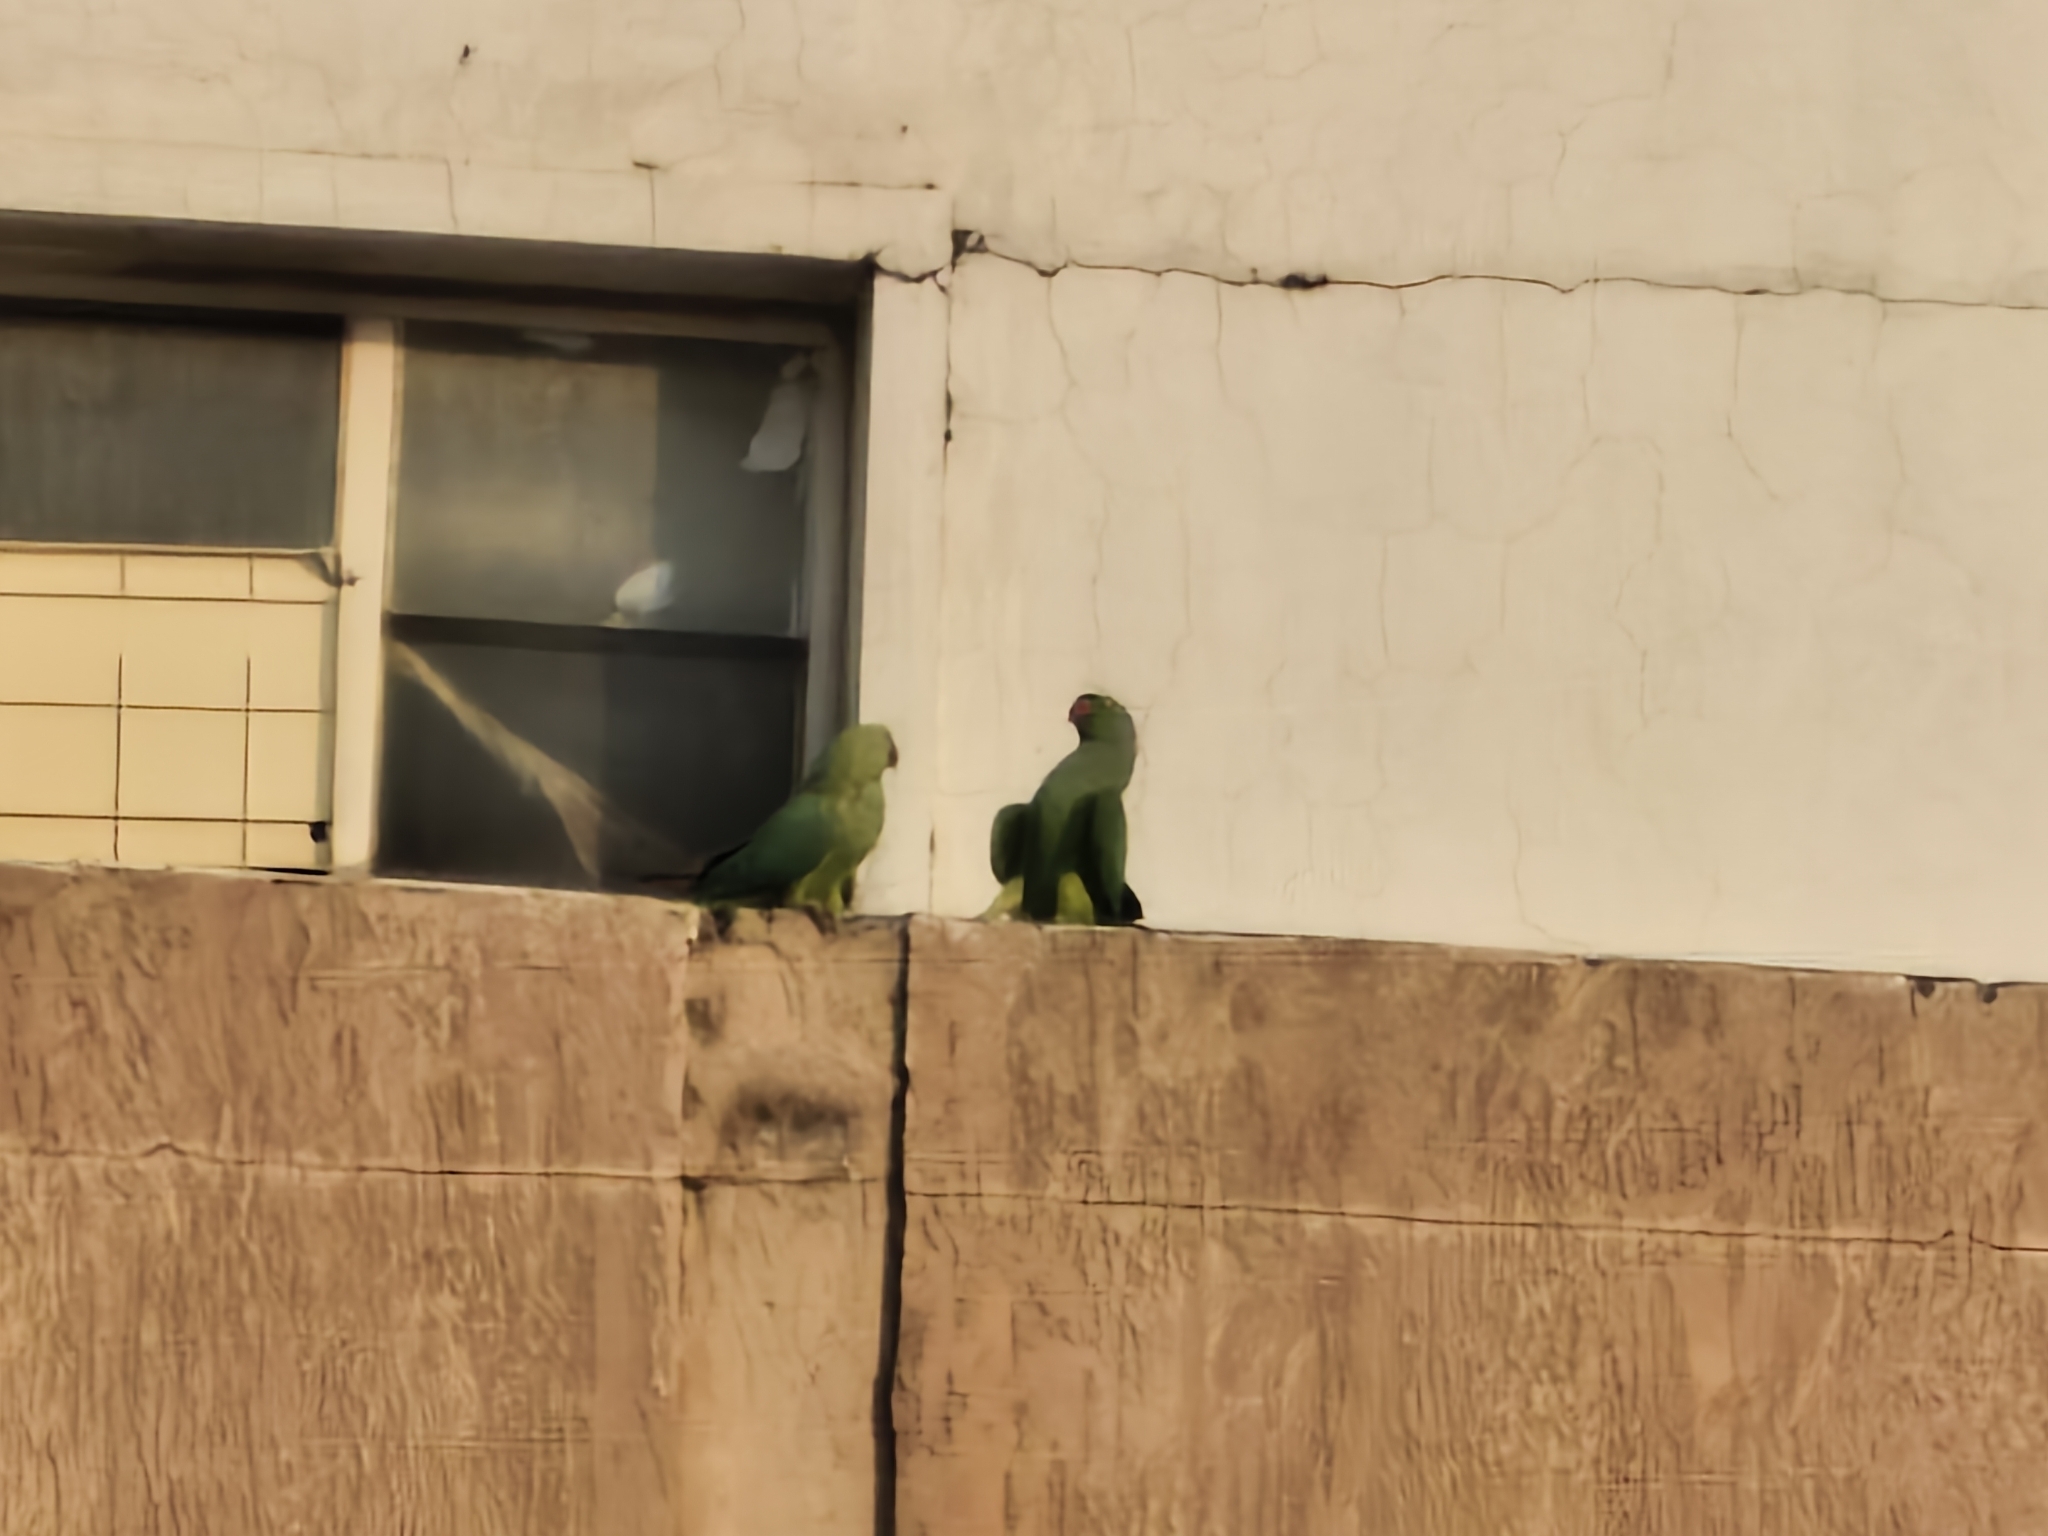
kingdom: Animalia
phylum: Chordata
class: Aves
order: Psittaciformes
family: Psittacidae
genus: Psittacula
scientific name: Psittacula krameri
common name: Rose-ringed parakeet
